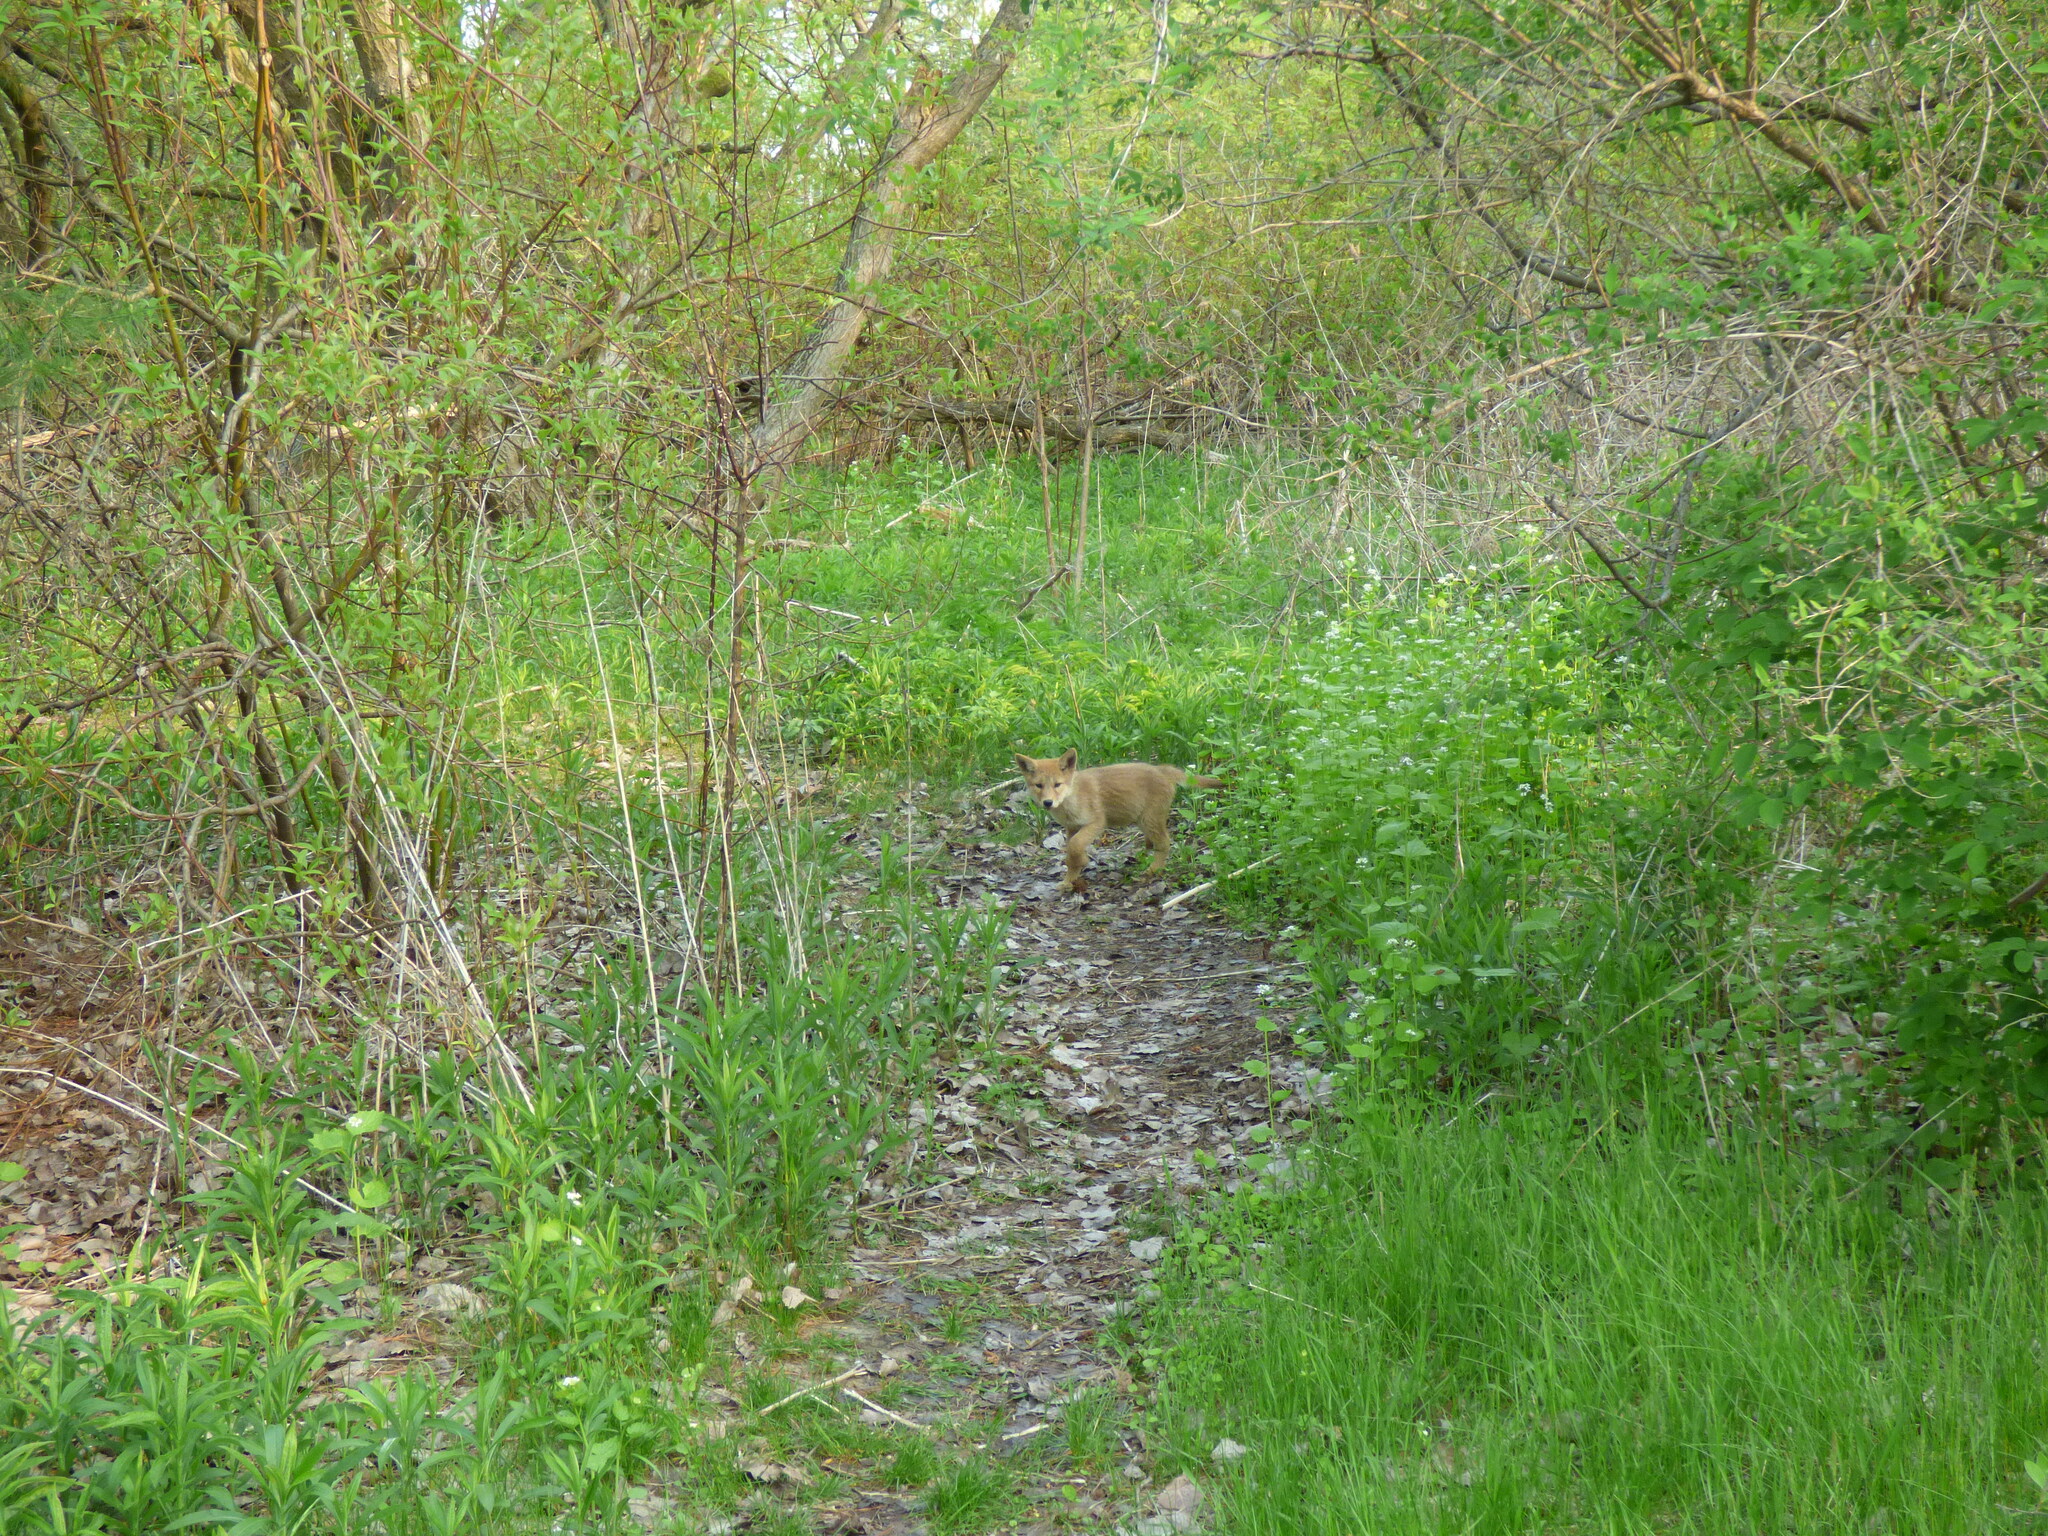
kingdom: Animalia
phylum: Chordata
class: Mammalia
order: Carnivora
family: Canidae
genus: Canis
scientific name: Canis latrans
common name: Coyote
